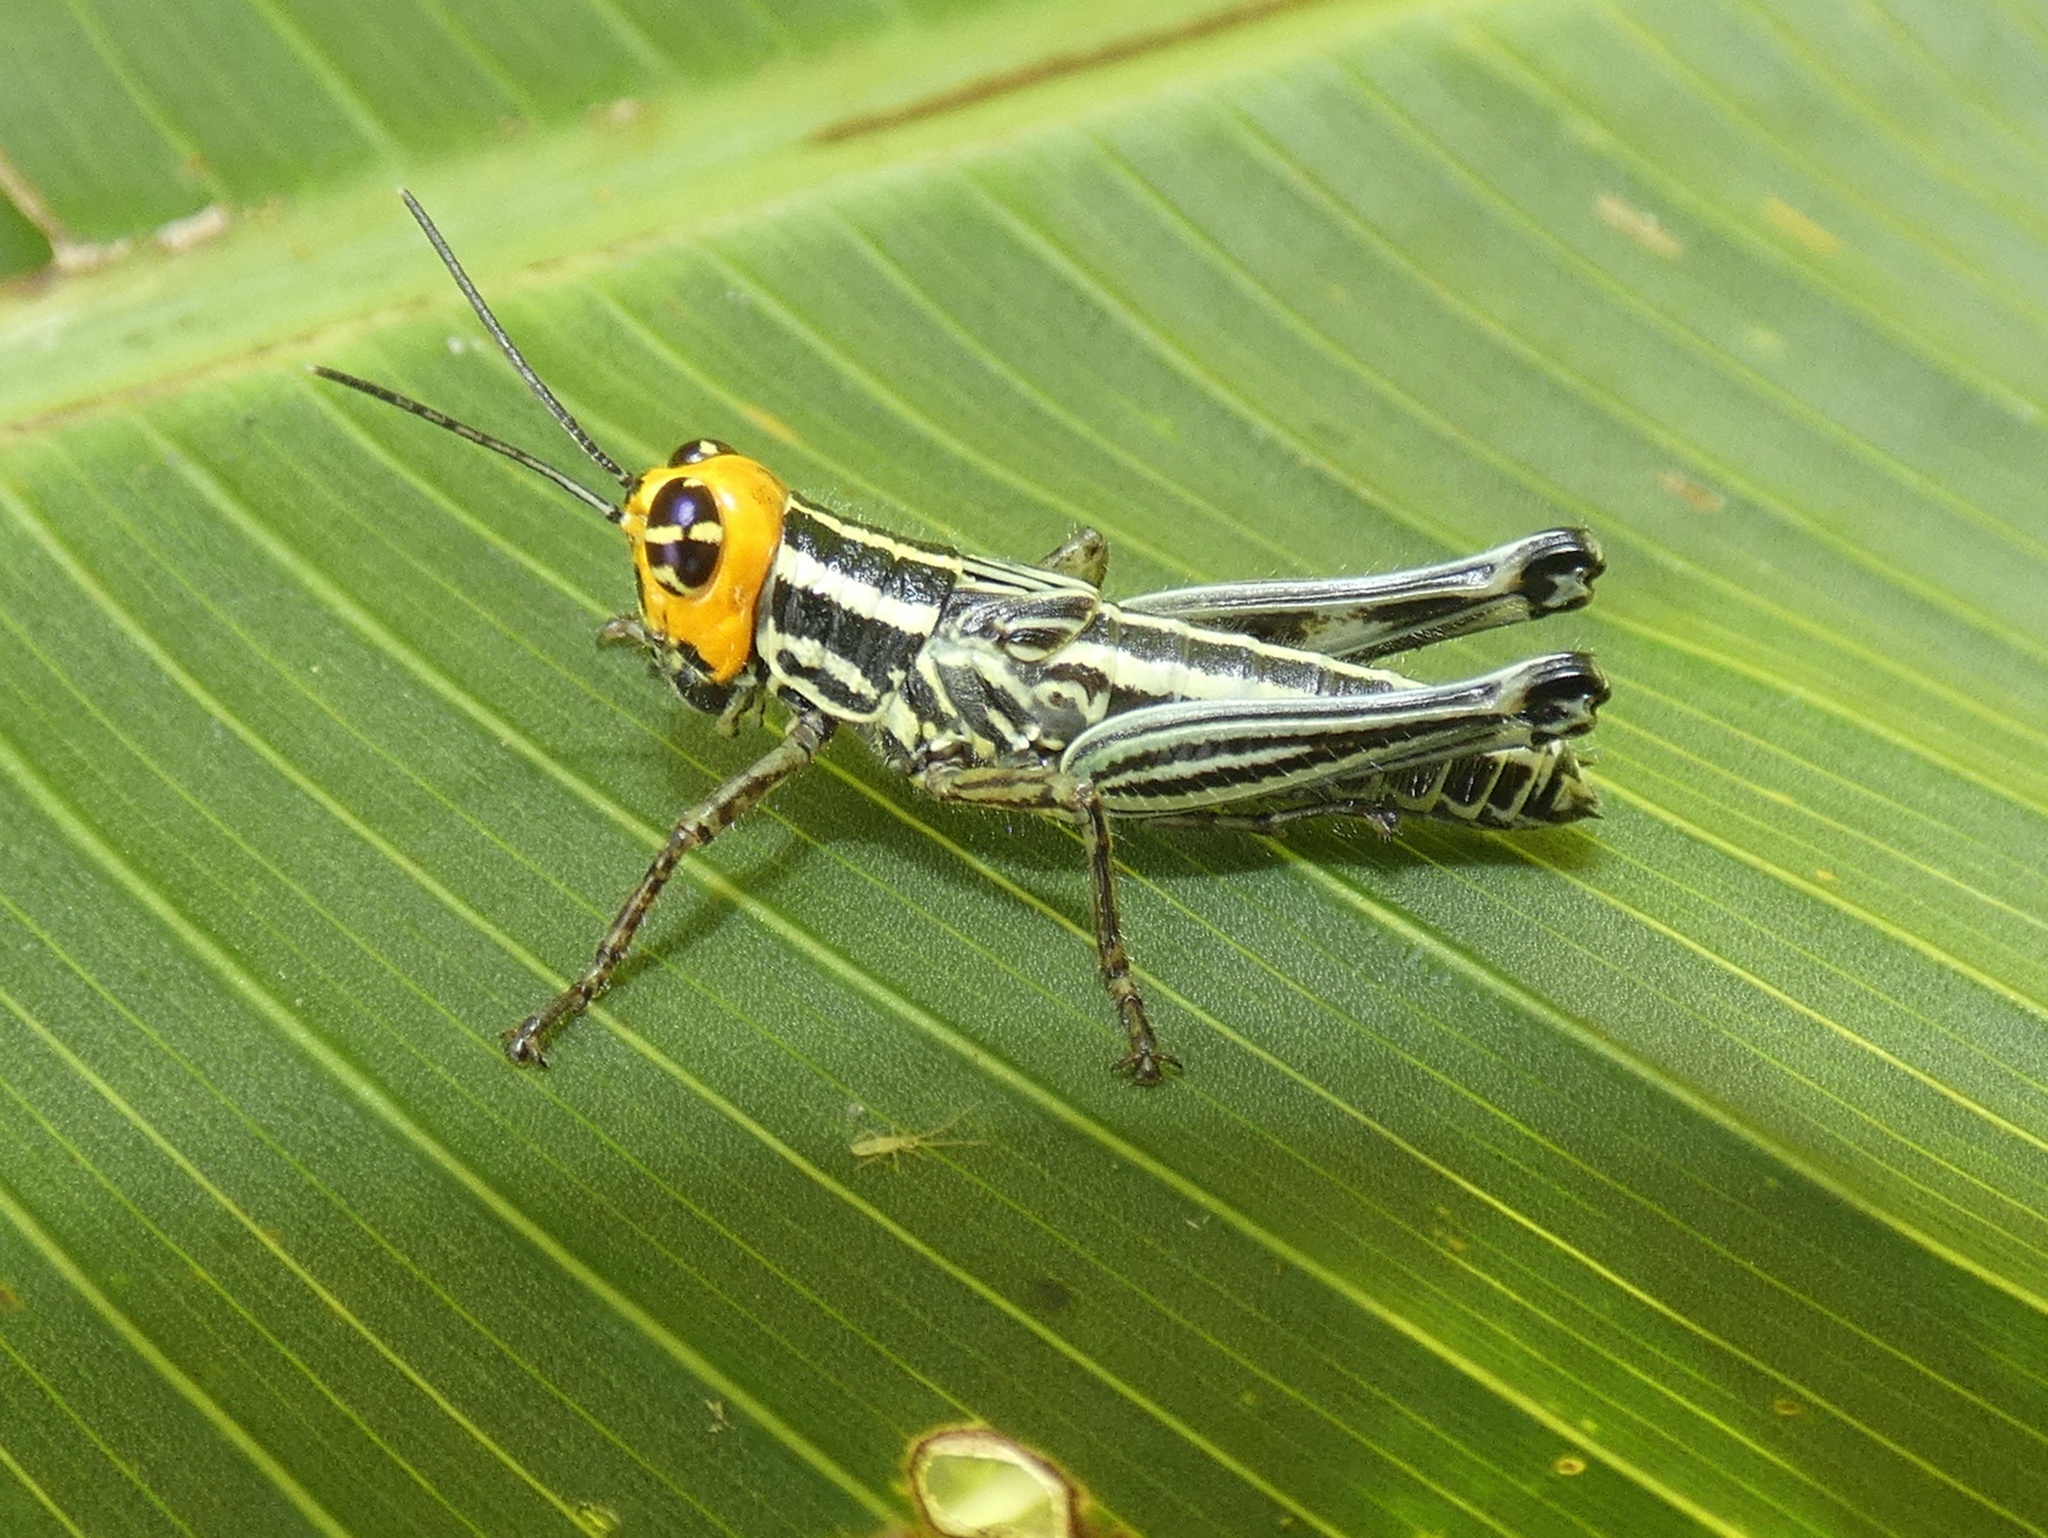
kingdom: Animalia
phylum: Arthropoda
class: Insecta
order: Orthoptera
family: Acrididae
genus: Coscineuta
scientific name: Coscineuta coxalis
